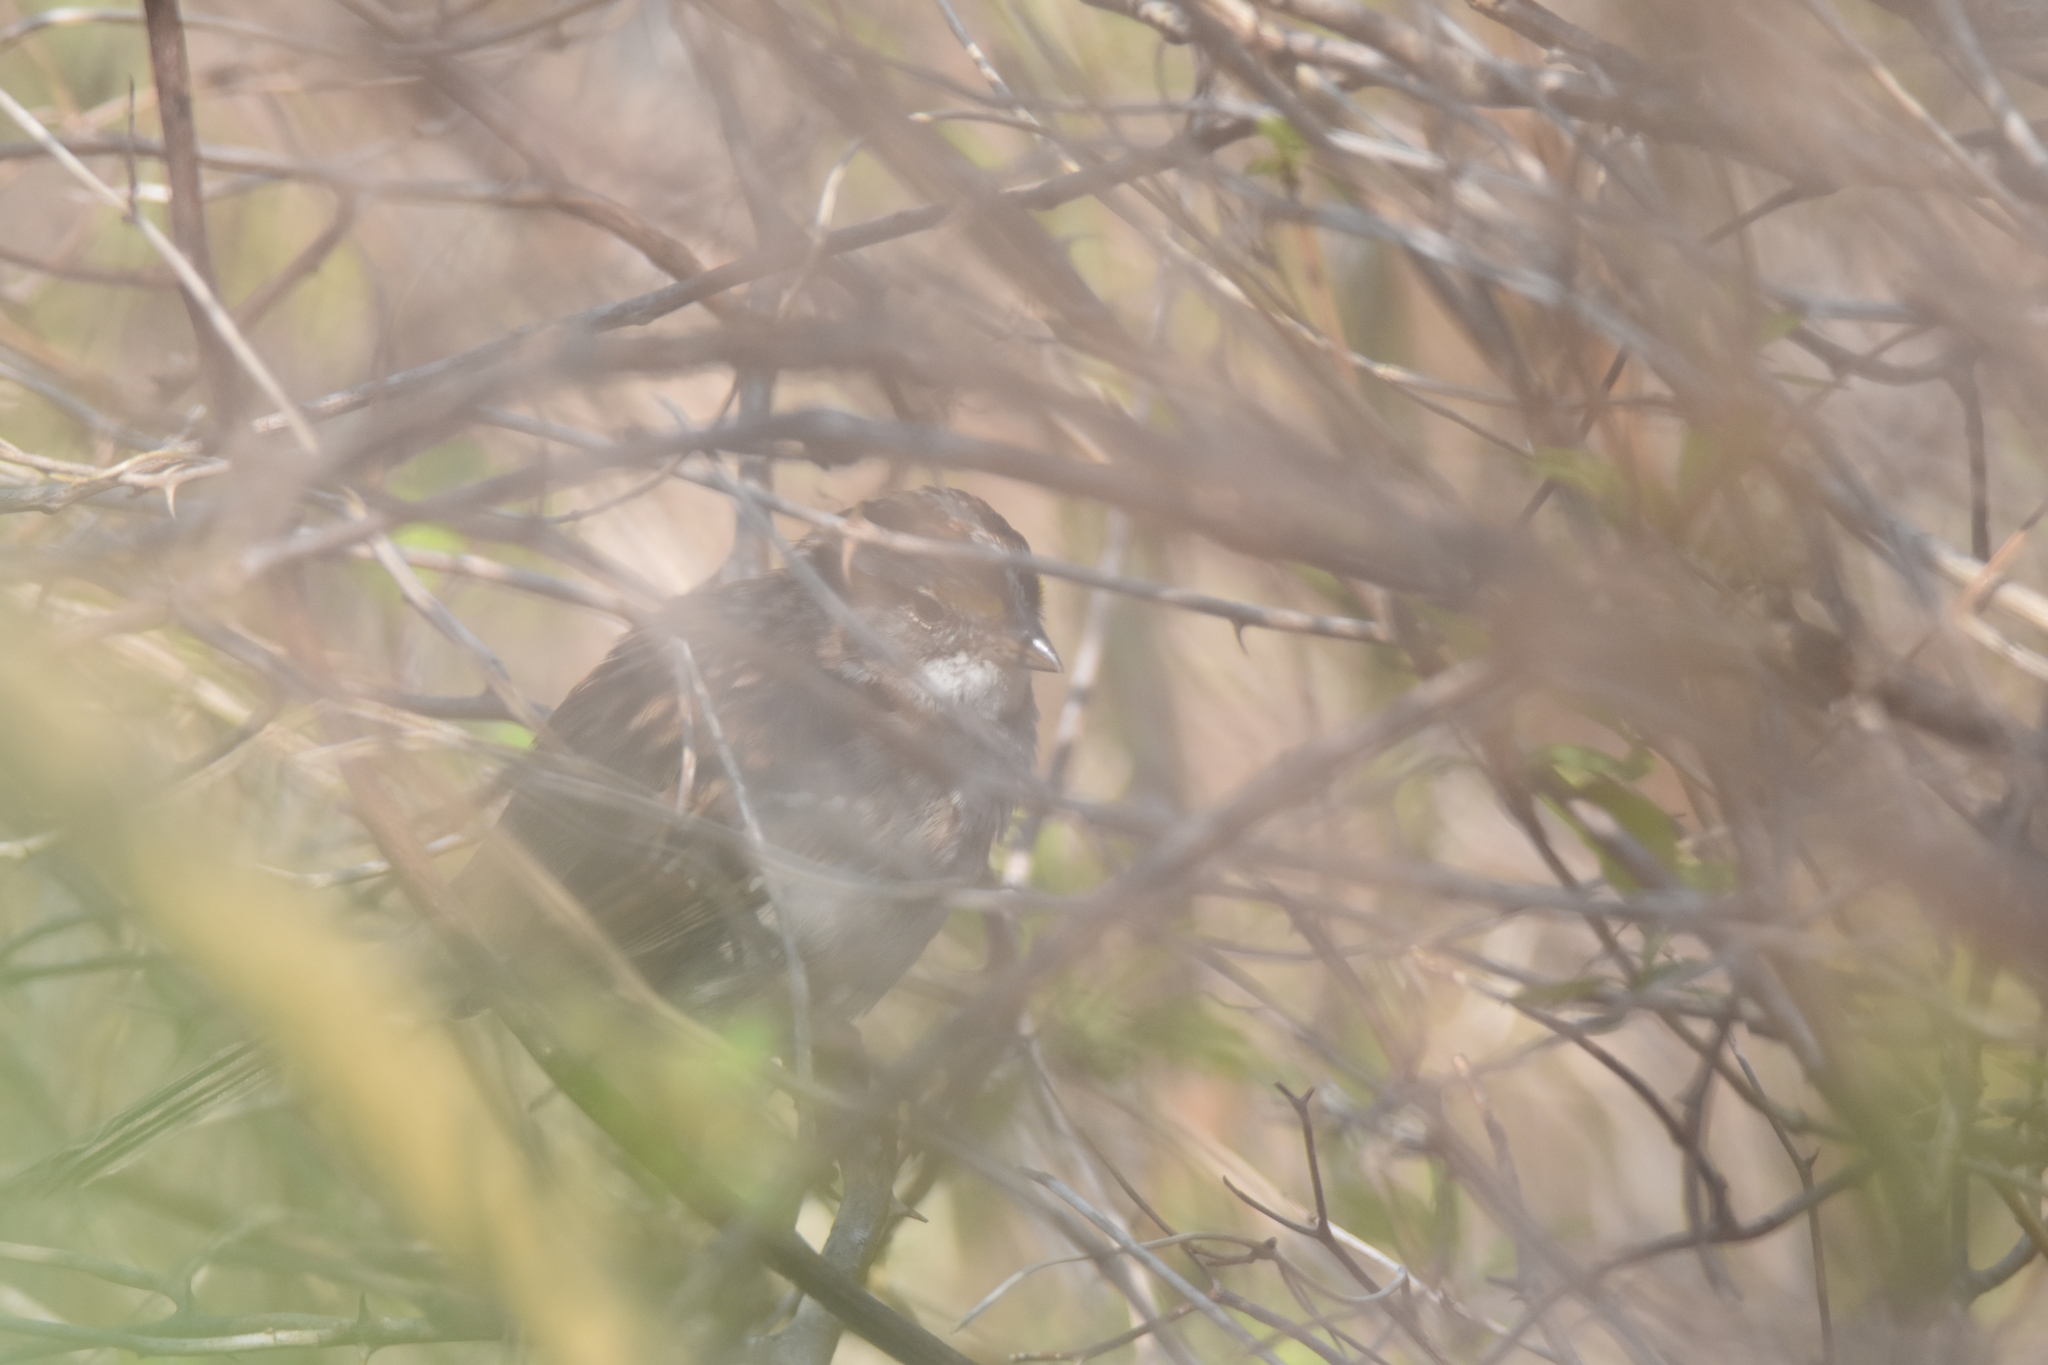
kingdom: Animalia
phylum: Chordata
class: Aves
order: Passeriformes
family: Passerellidae
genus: Zonotrichia
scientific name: Zonotrichia albicollis
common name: White-throated sparrow
